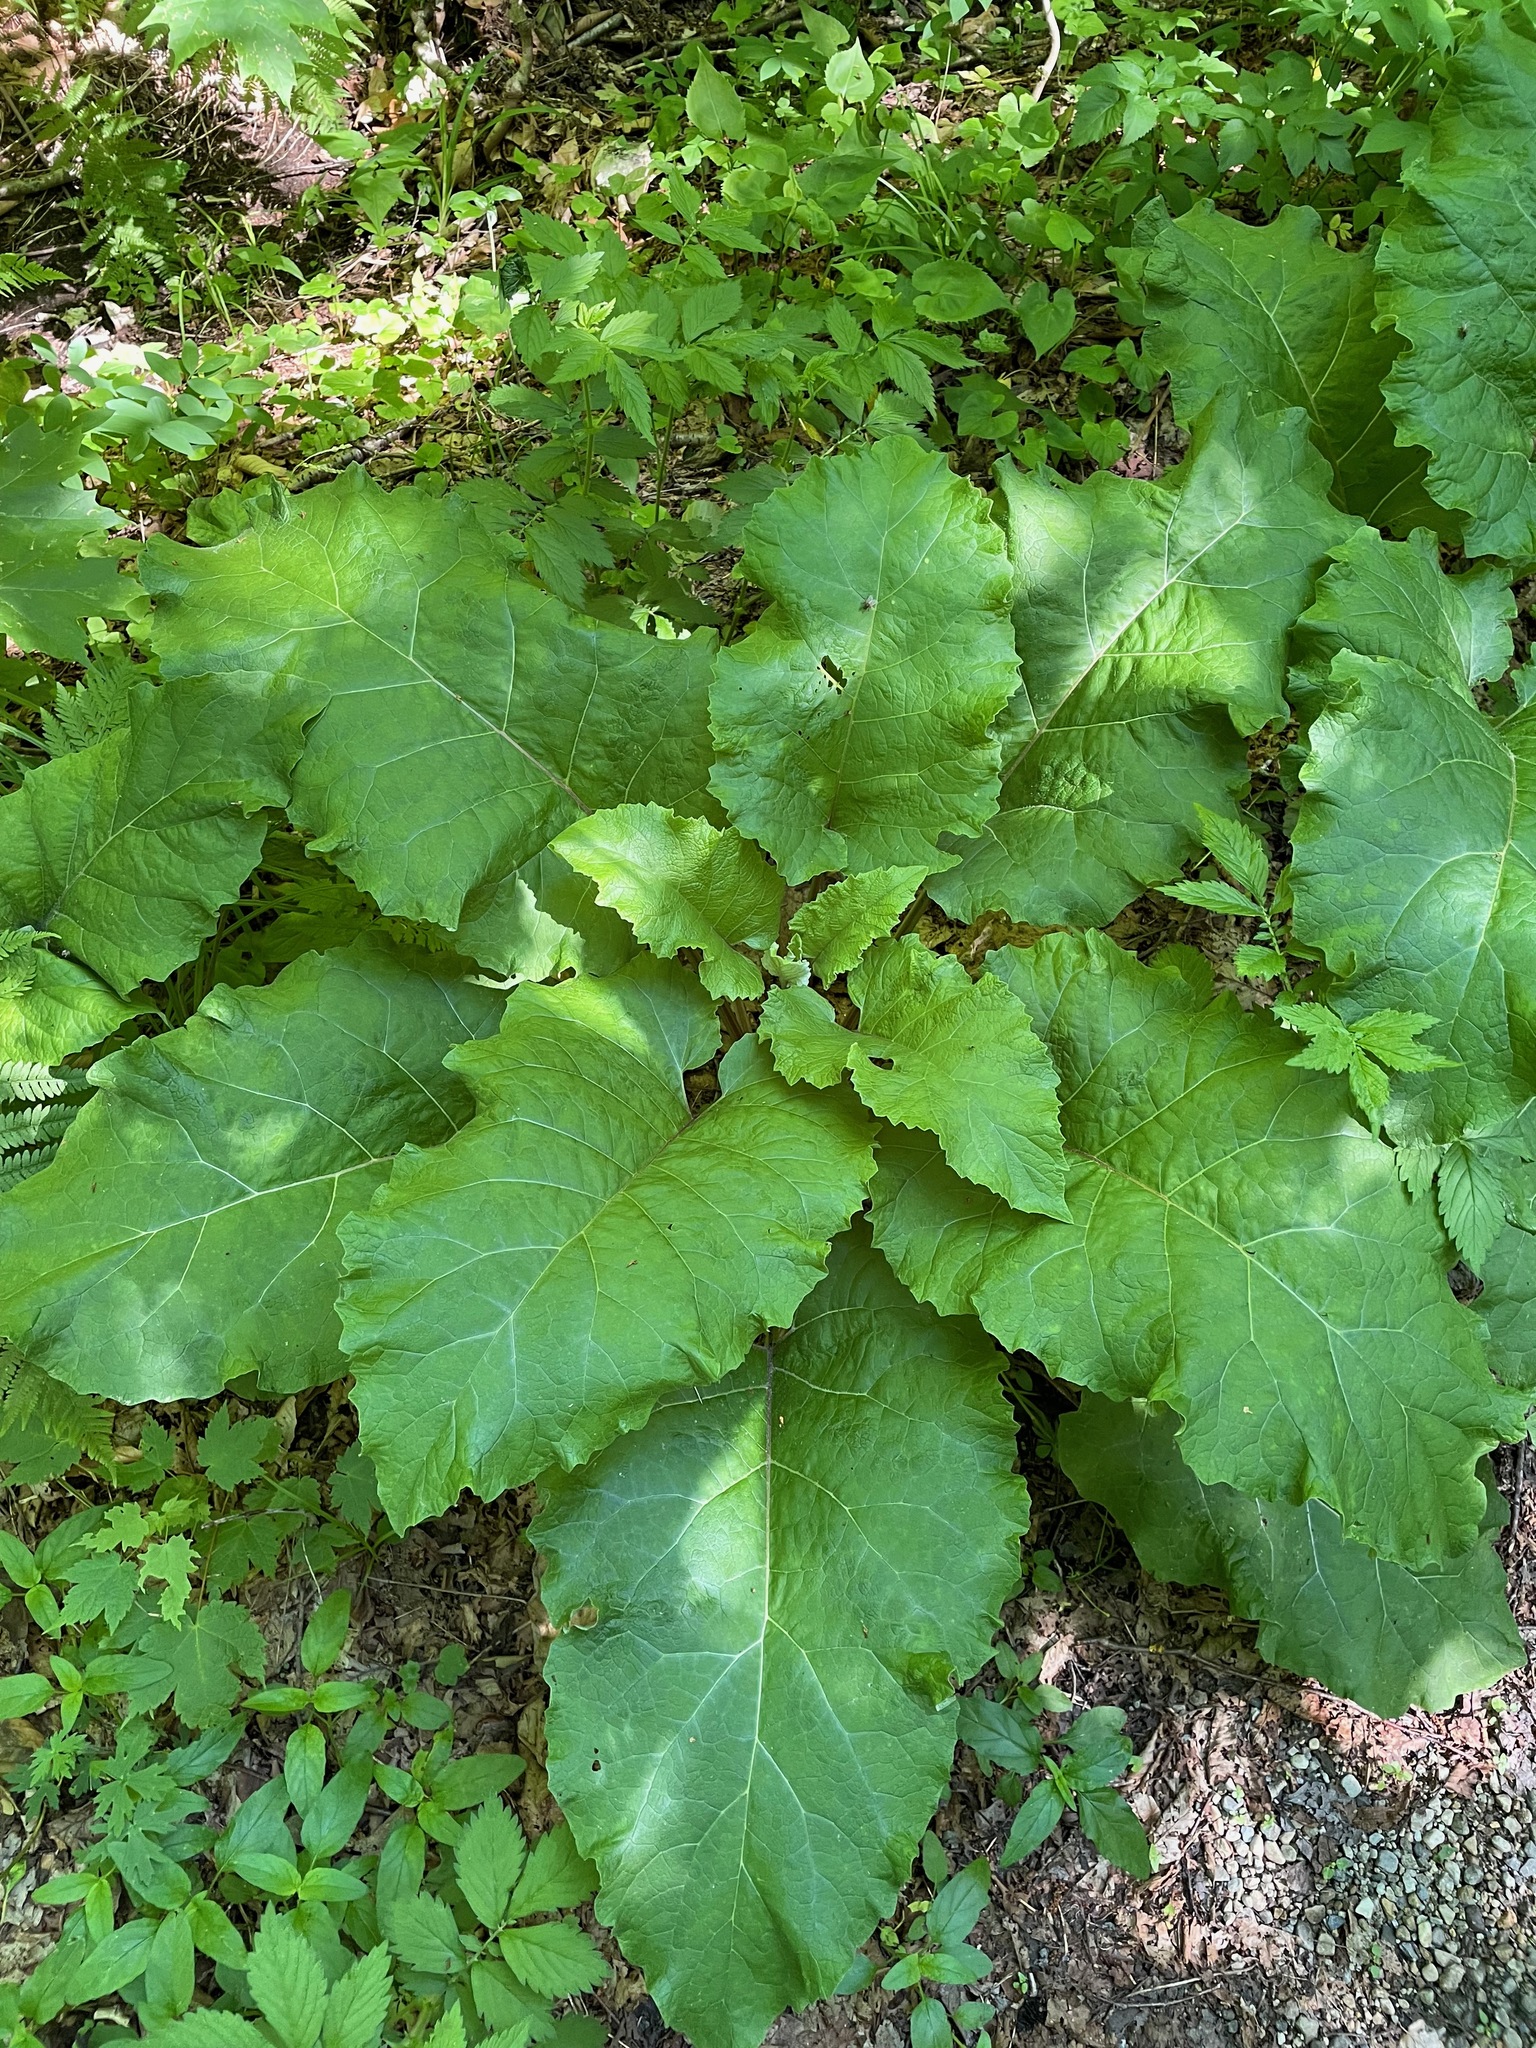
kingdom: Plantae
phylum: Tracheophyta
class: Magnoliopsida
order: Asterales
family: Asteraceae
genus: Arctium
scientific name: Arctium
